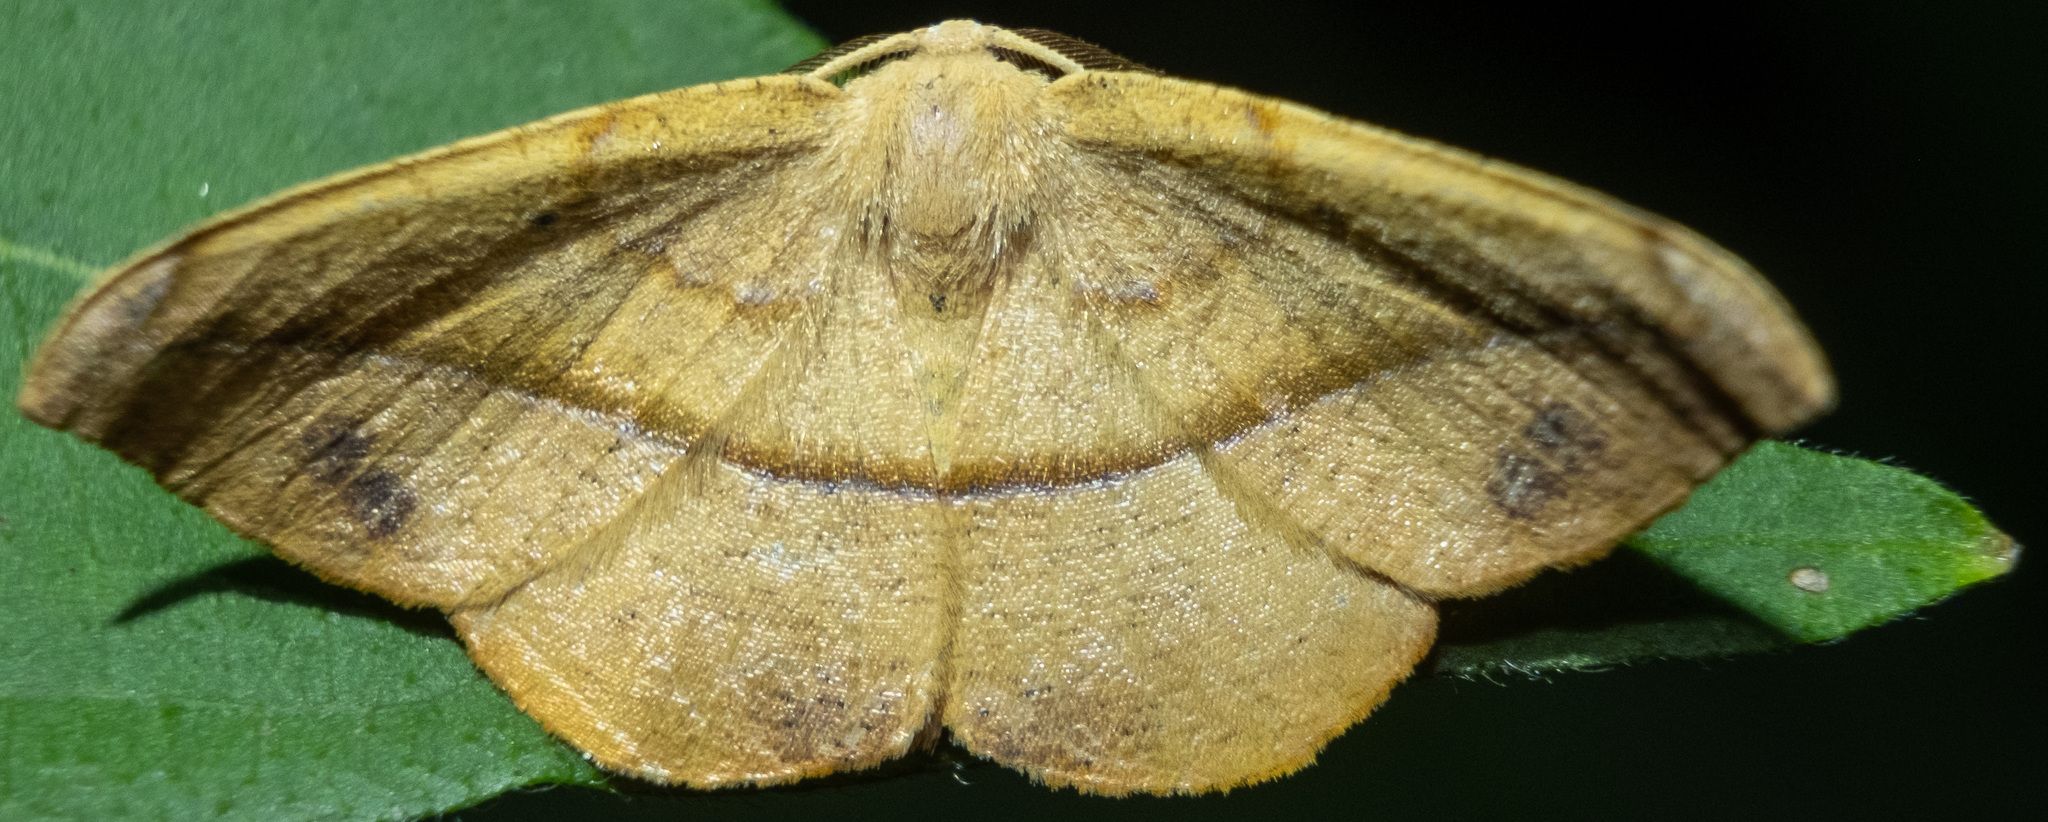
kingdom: Animalia
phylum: Arthropoda
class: Insecta
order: Lepidoptera
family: Geometridae
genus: Patalene
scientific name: Patalene olyzonaria
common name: Juniper geometer moth
